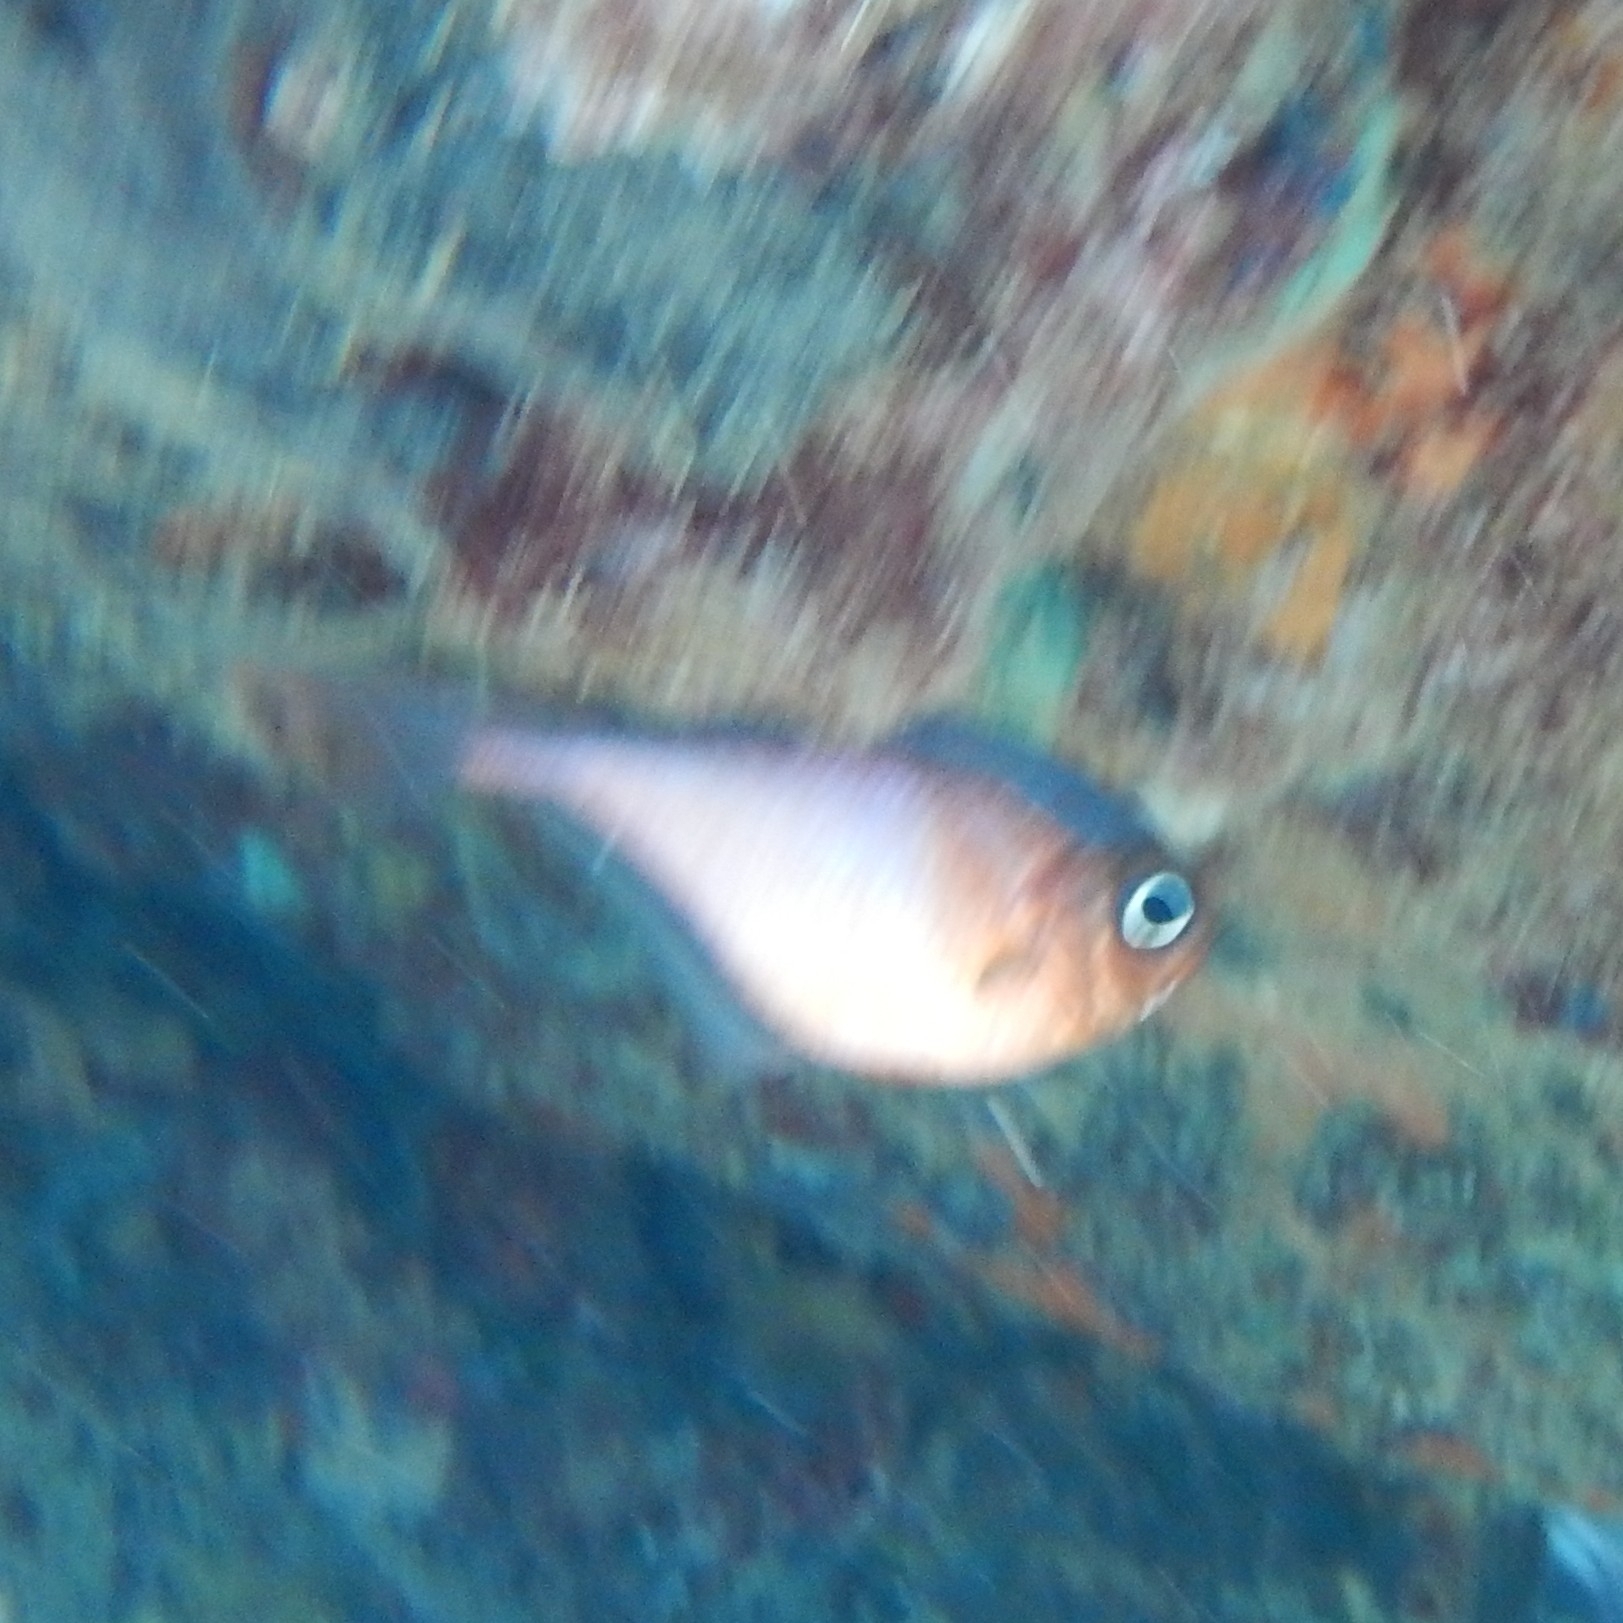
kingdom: Animalia
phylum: Chordata
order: Perciformes
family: Pempheridae
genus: Pempheris
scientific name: Pempheris schomburgkii
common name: Glassy sweeper
